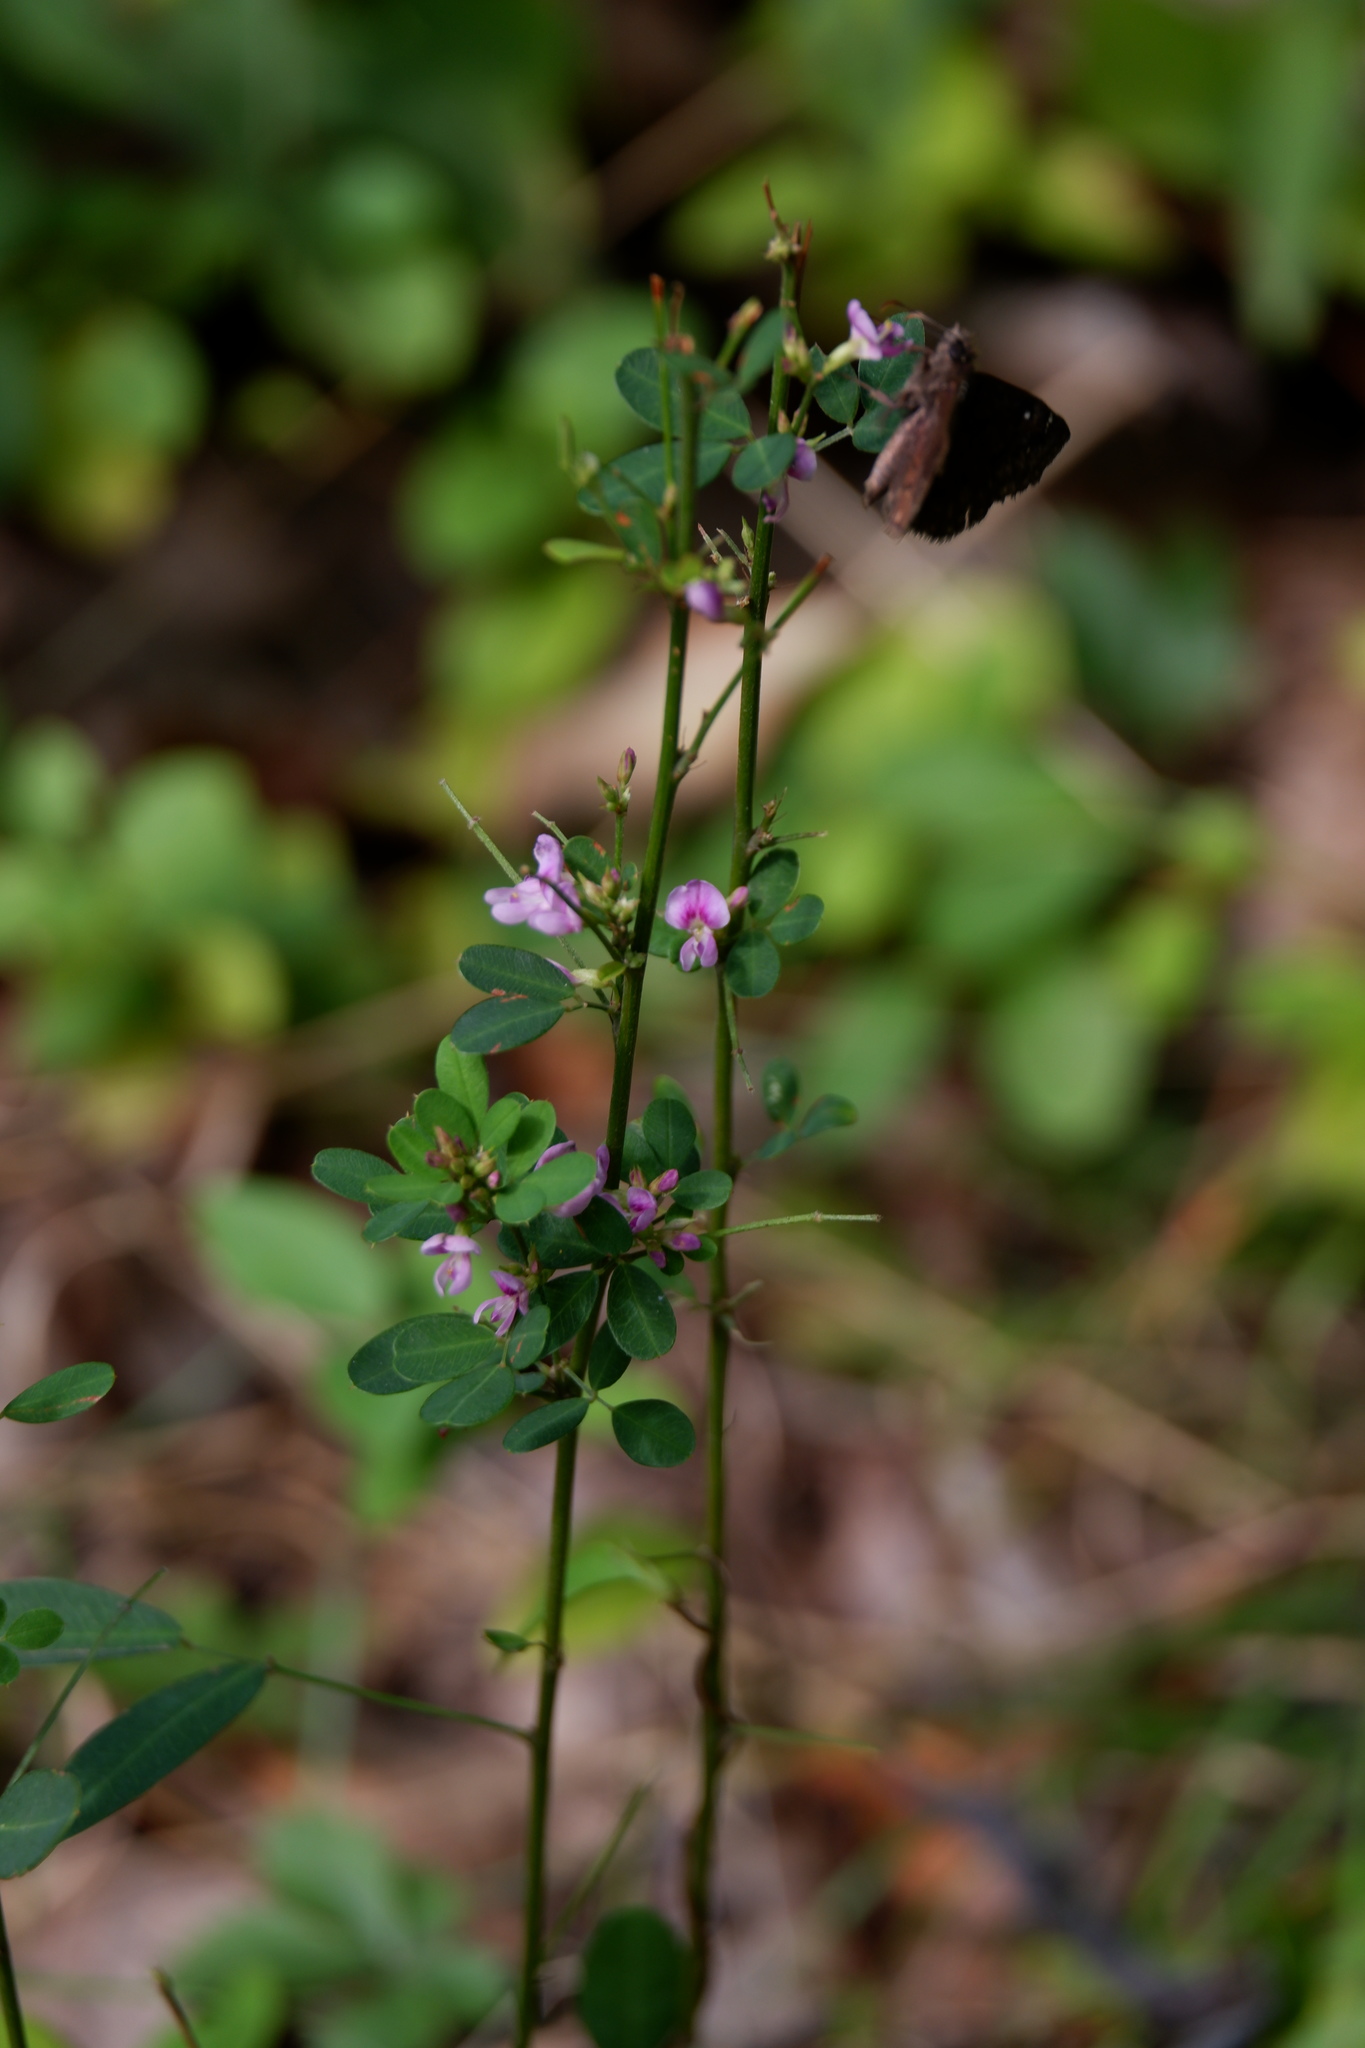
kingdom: Plantae
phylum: Tracheophyta
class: Magnoliopsida
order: Fabales
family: Fabaceae
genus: Lespedeza
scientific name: Lespedeza violacea
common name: Wand bush-clover
